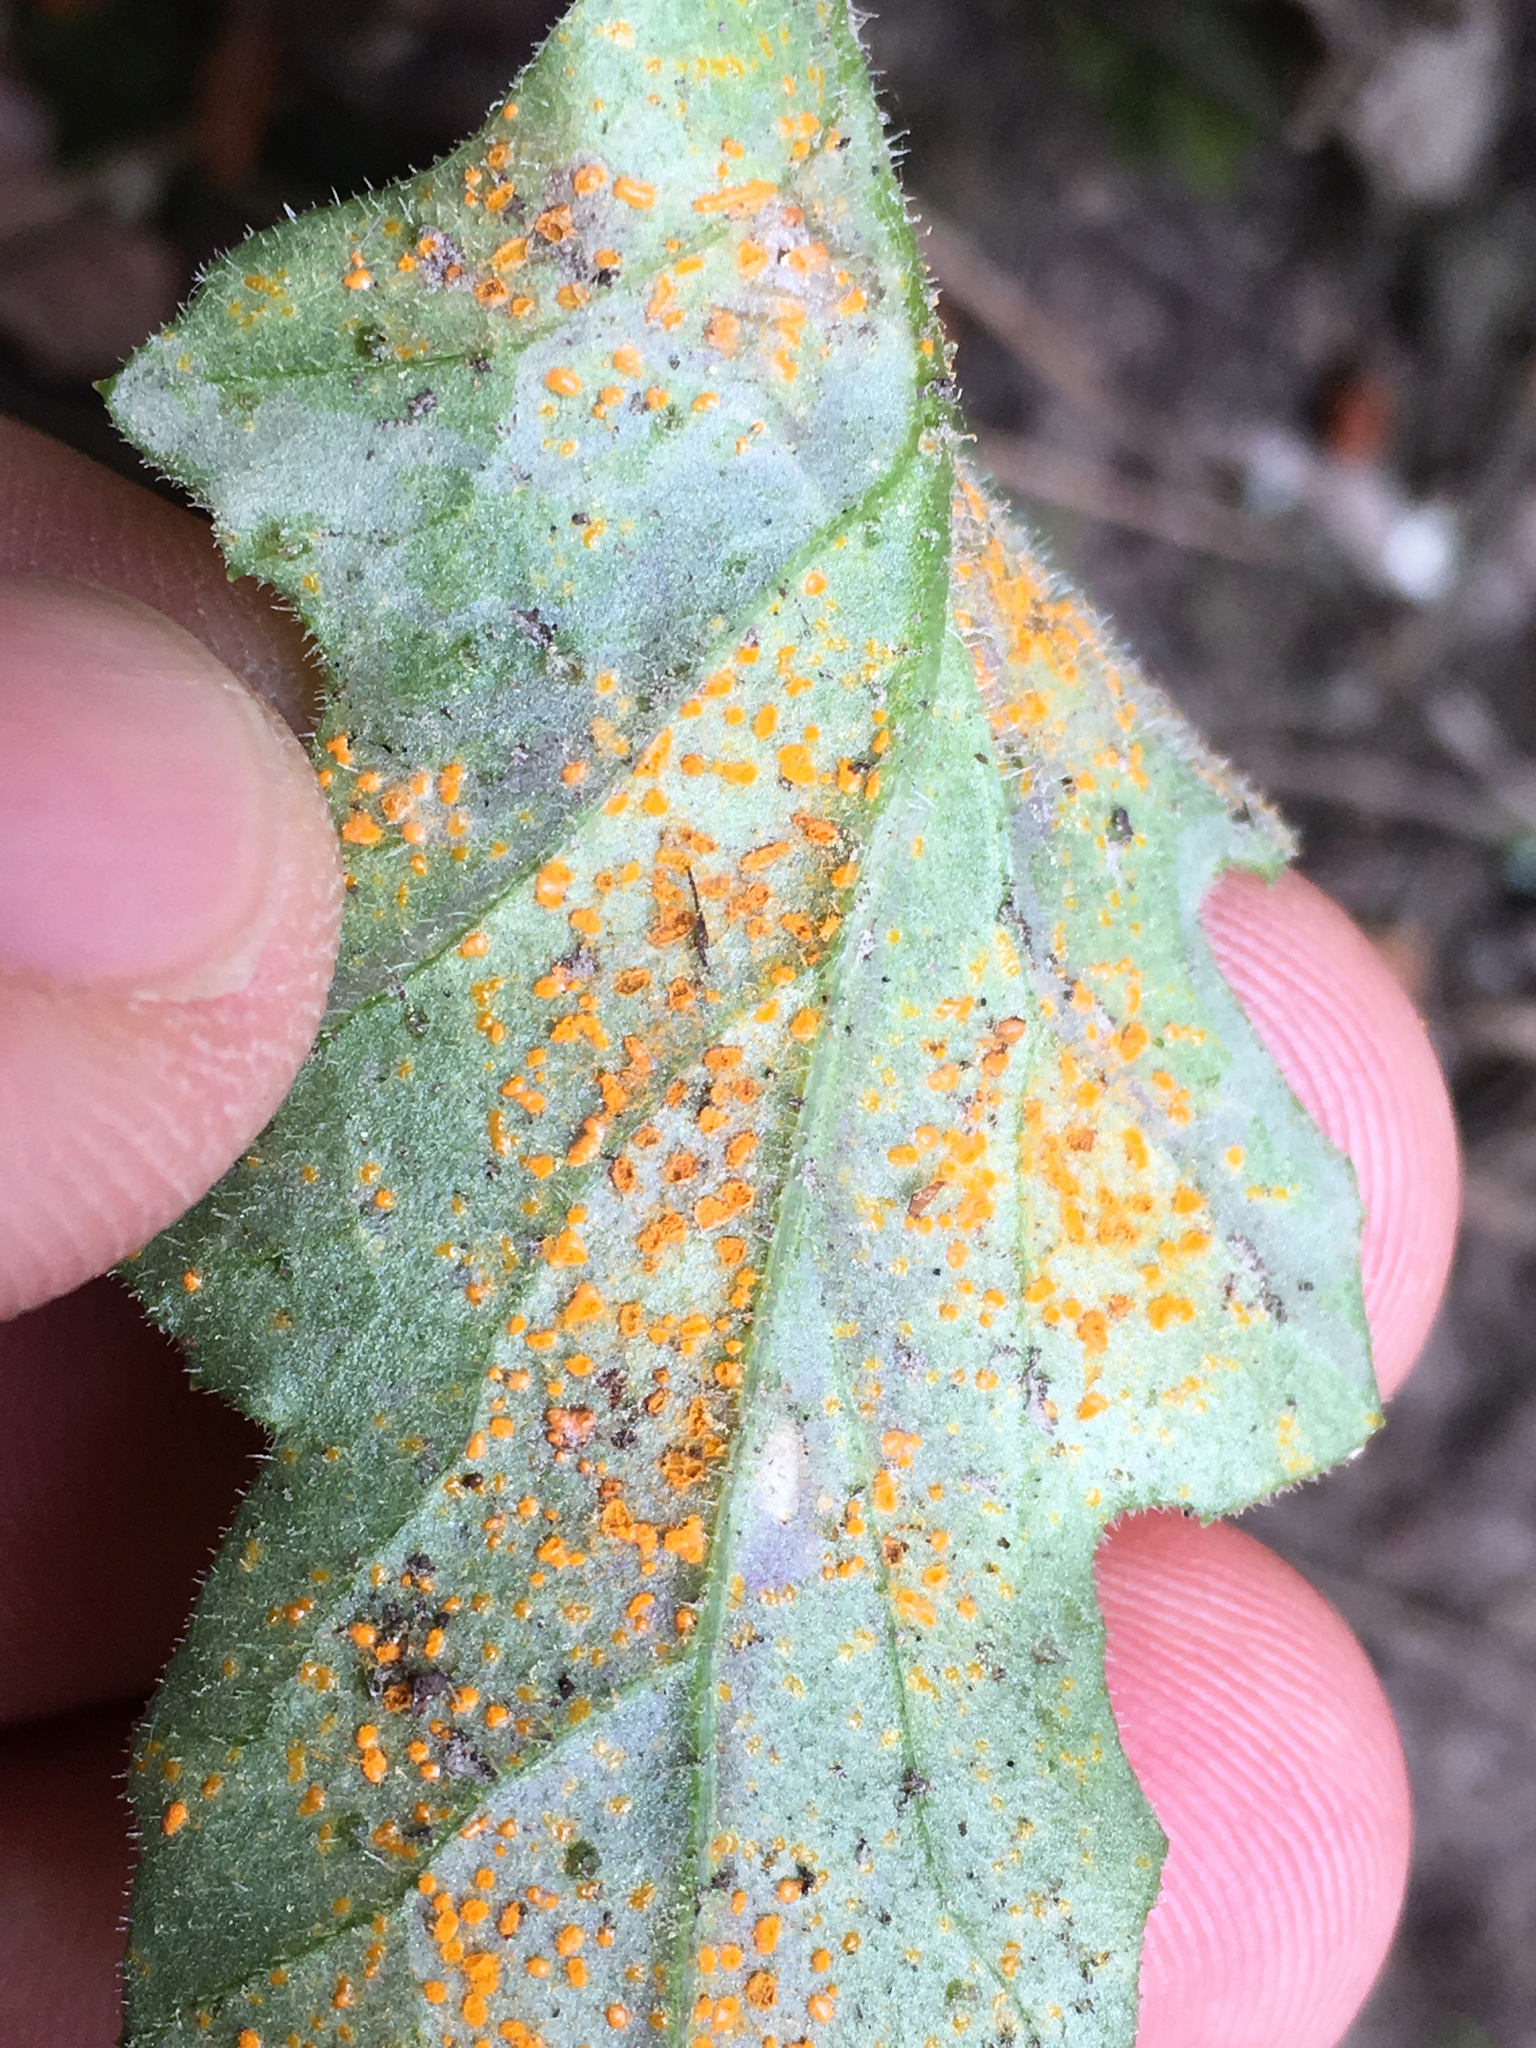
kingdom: Fungi
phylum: Basidiomycota
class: Pucciniomycetes
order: Pucciniales
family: Coleosporiaceae
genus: Coleosporium
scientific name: Coleosporium tussilaginis
